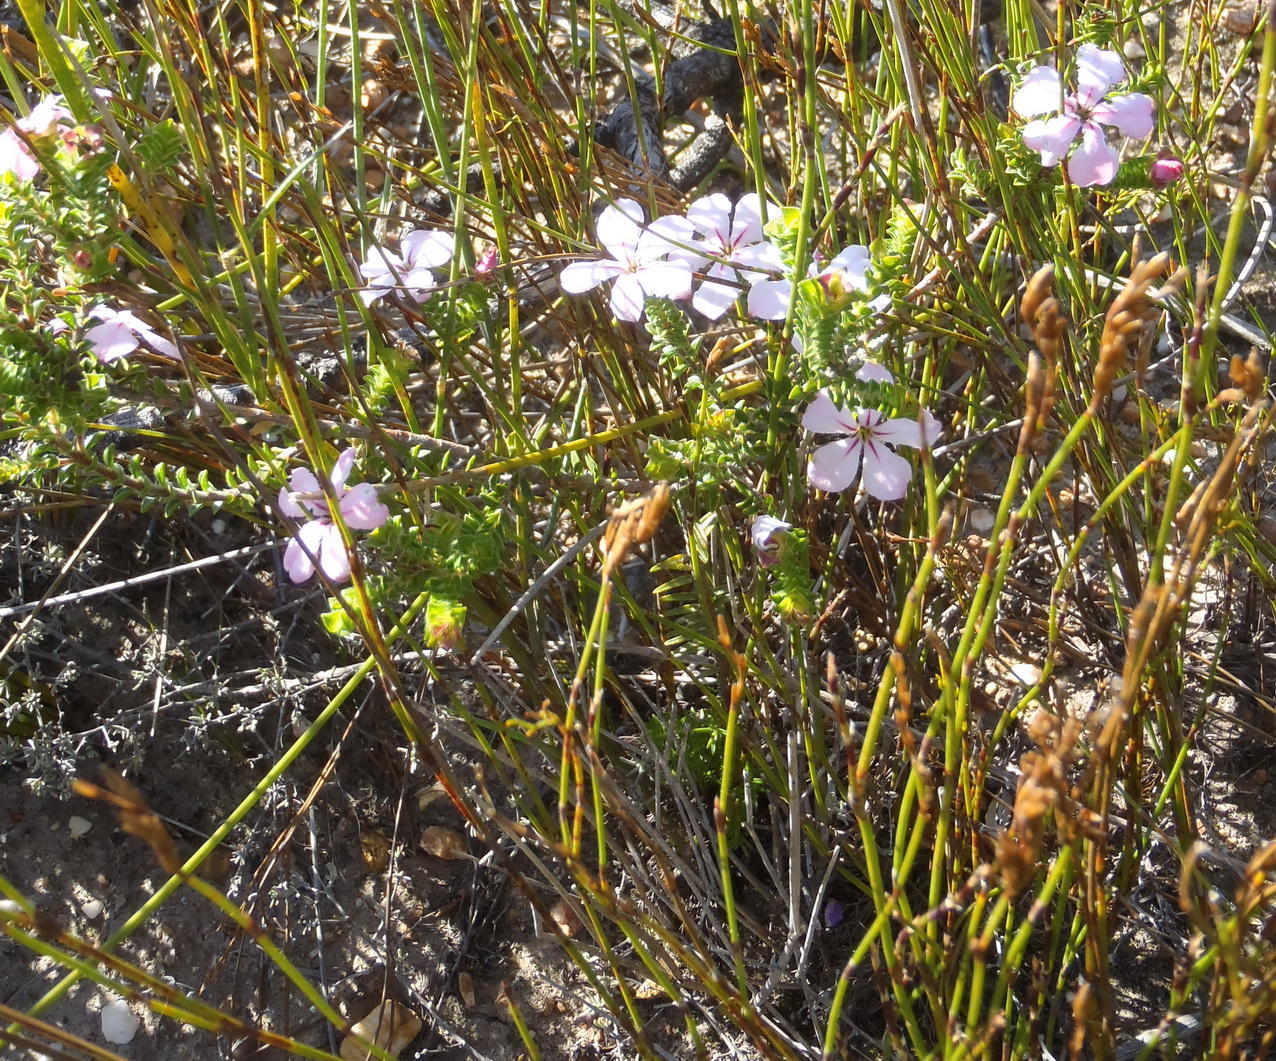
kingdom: Plantae
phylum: Tracheophyta
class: Magnoliopsida
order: Sapindales
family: Rutaceae
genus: Acmadenia
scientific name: Acmadenia tetragona
